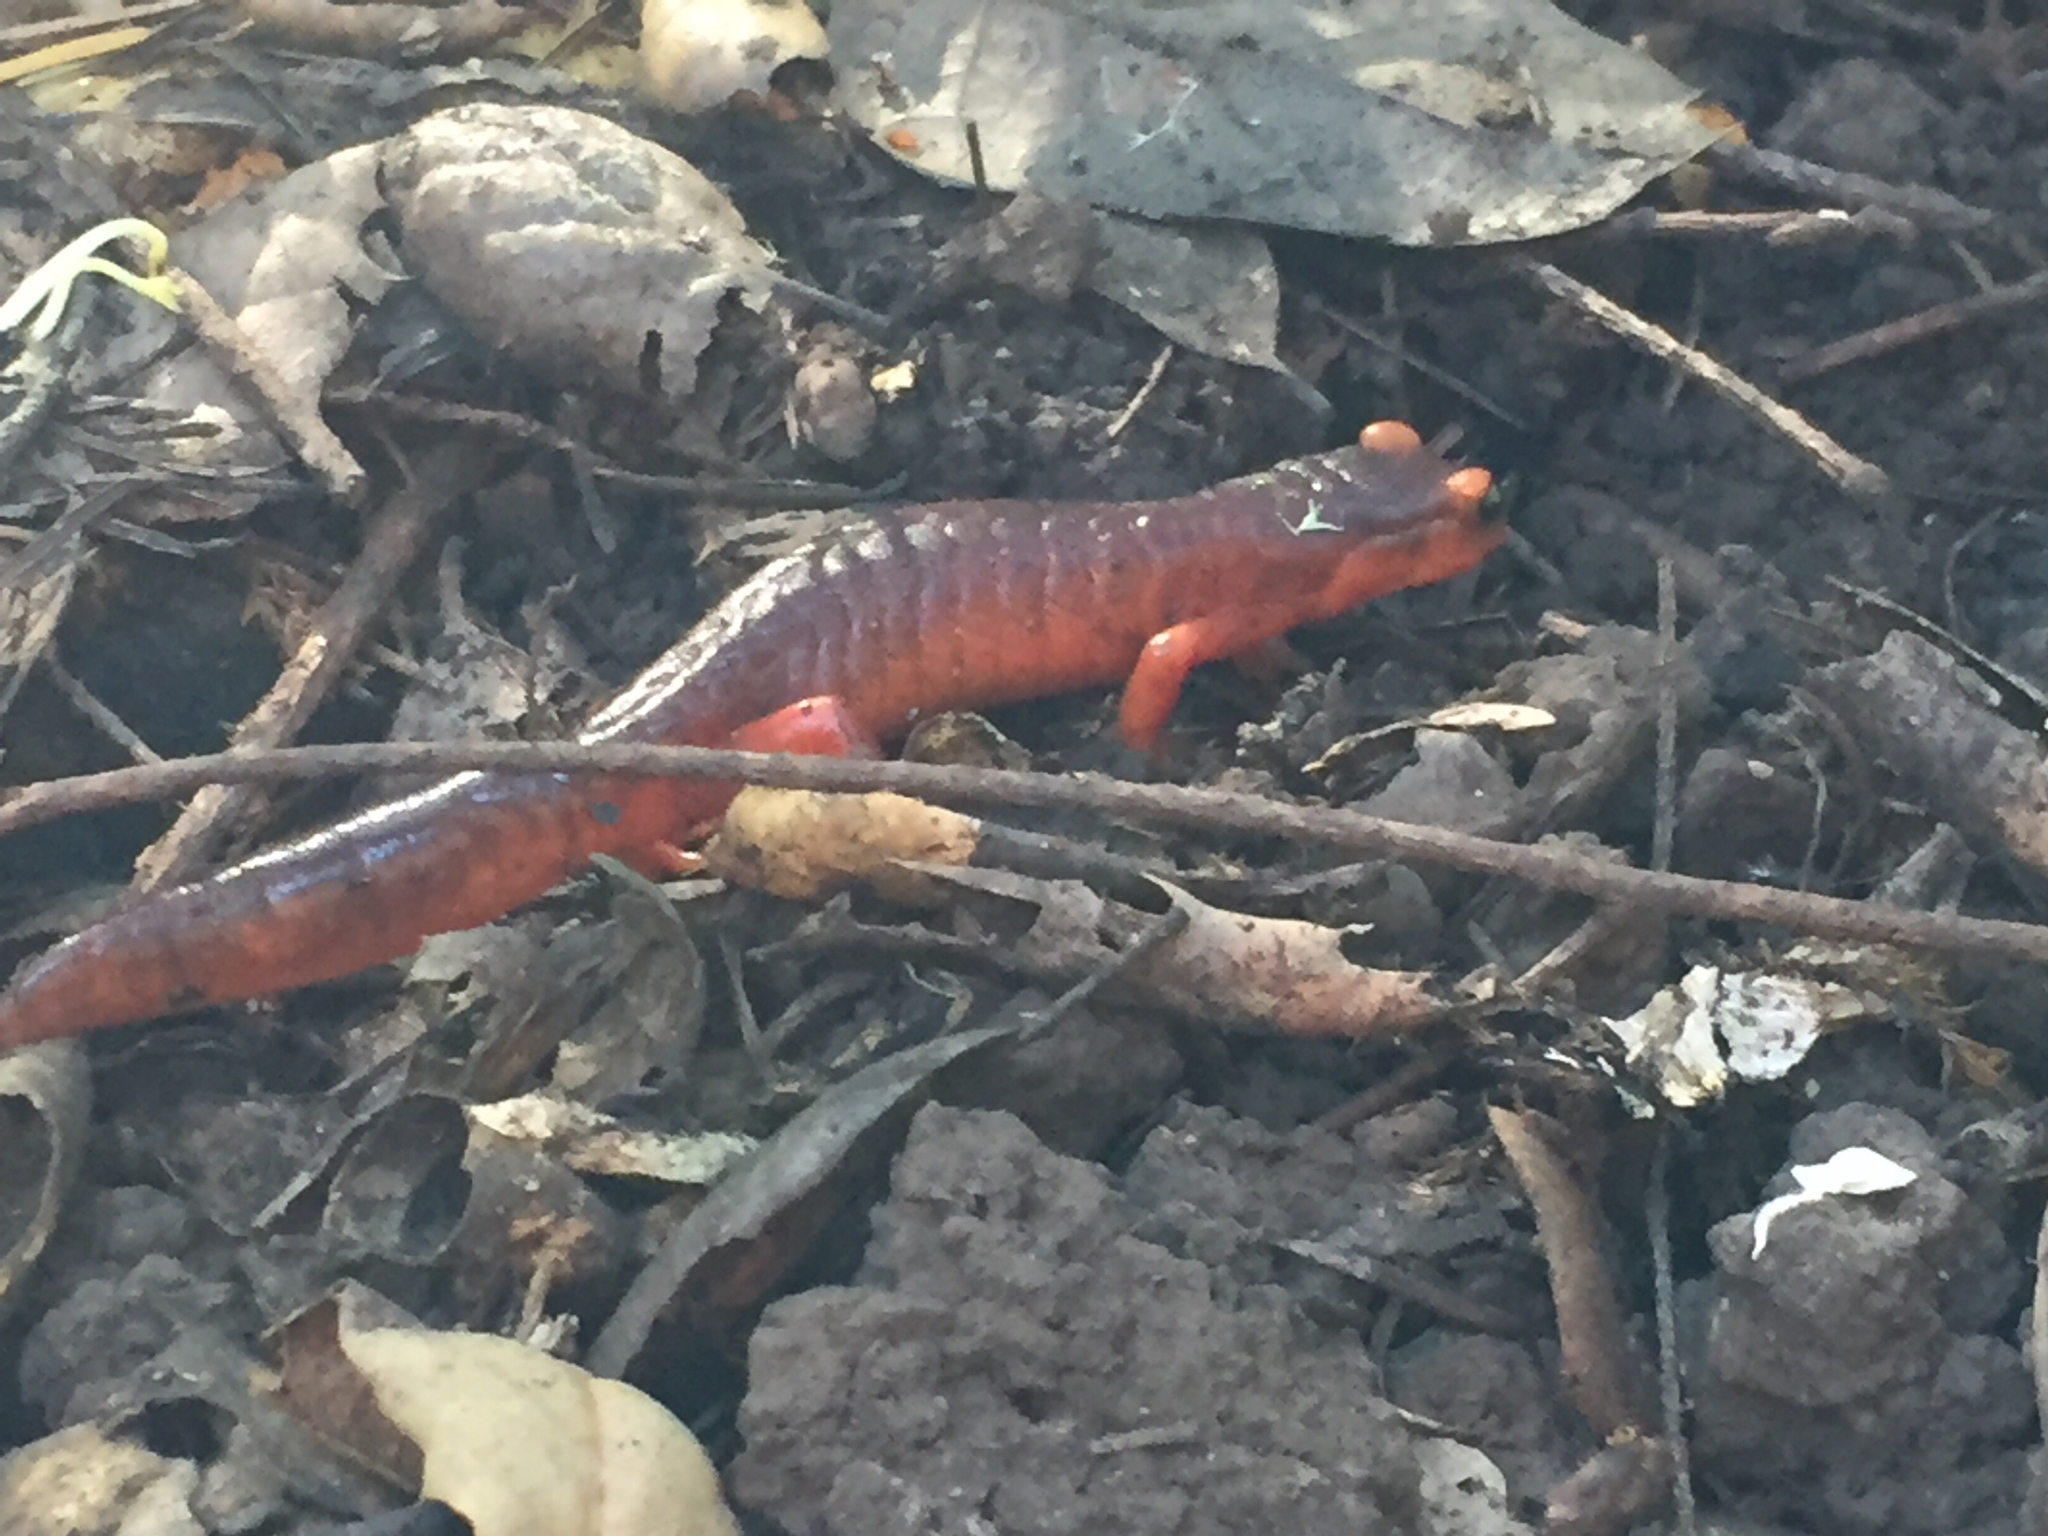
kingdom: Animalia
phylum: Chordata
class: Amphibia
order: Caudata
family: Plethodontidae
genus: Ensatina
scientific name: Ensatina eschscholtzii
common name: Ensatina
